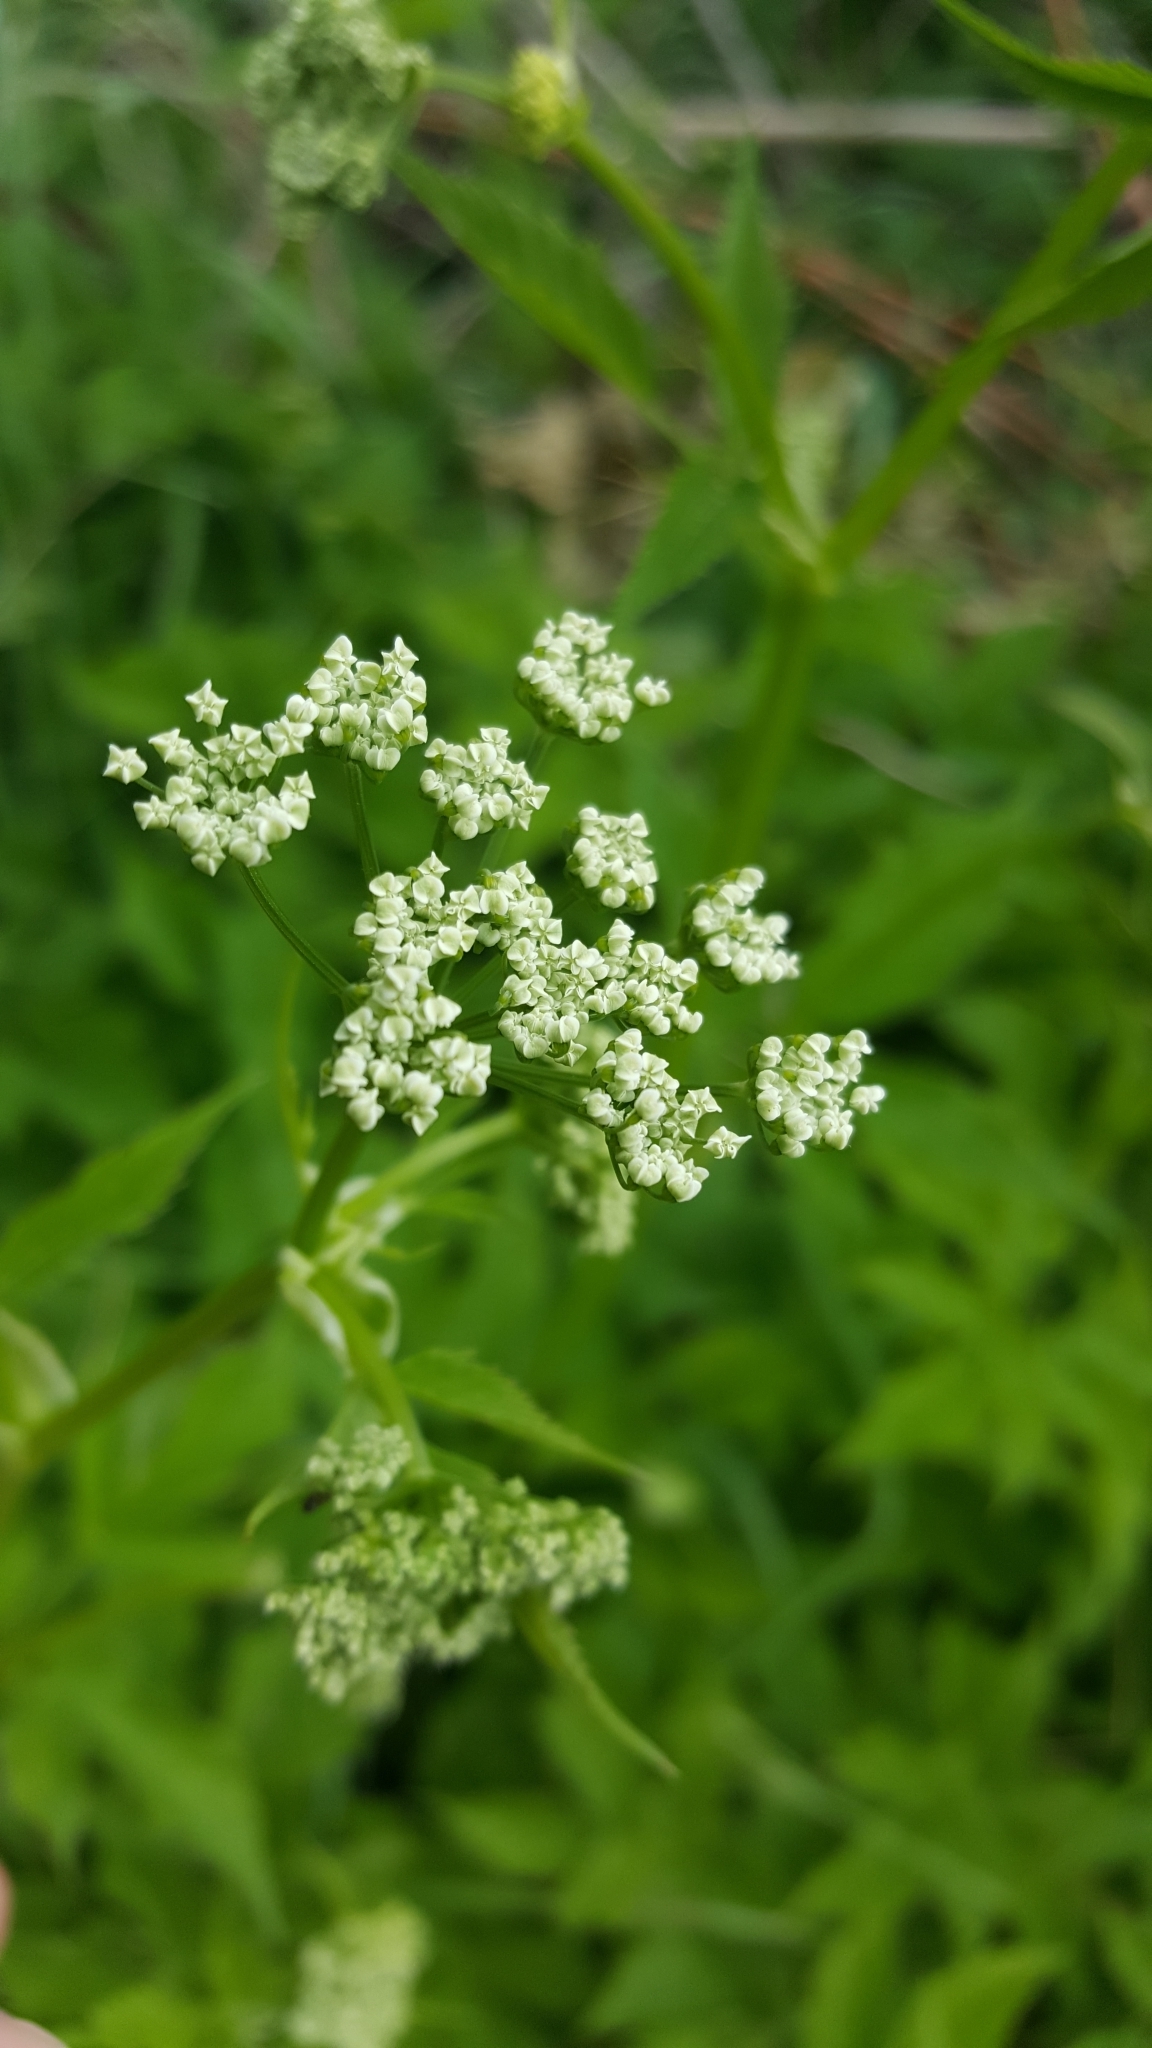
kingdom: Plantae
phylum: Tracheophyta
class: Magnoliopsida
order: Apiales
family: Apiaceae
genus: Aegopodium
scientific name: Aegopodium podagraria
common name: Ground-elder
